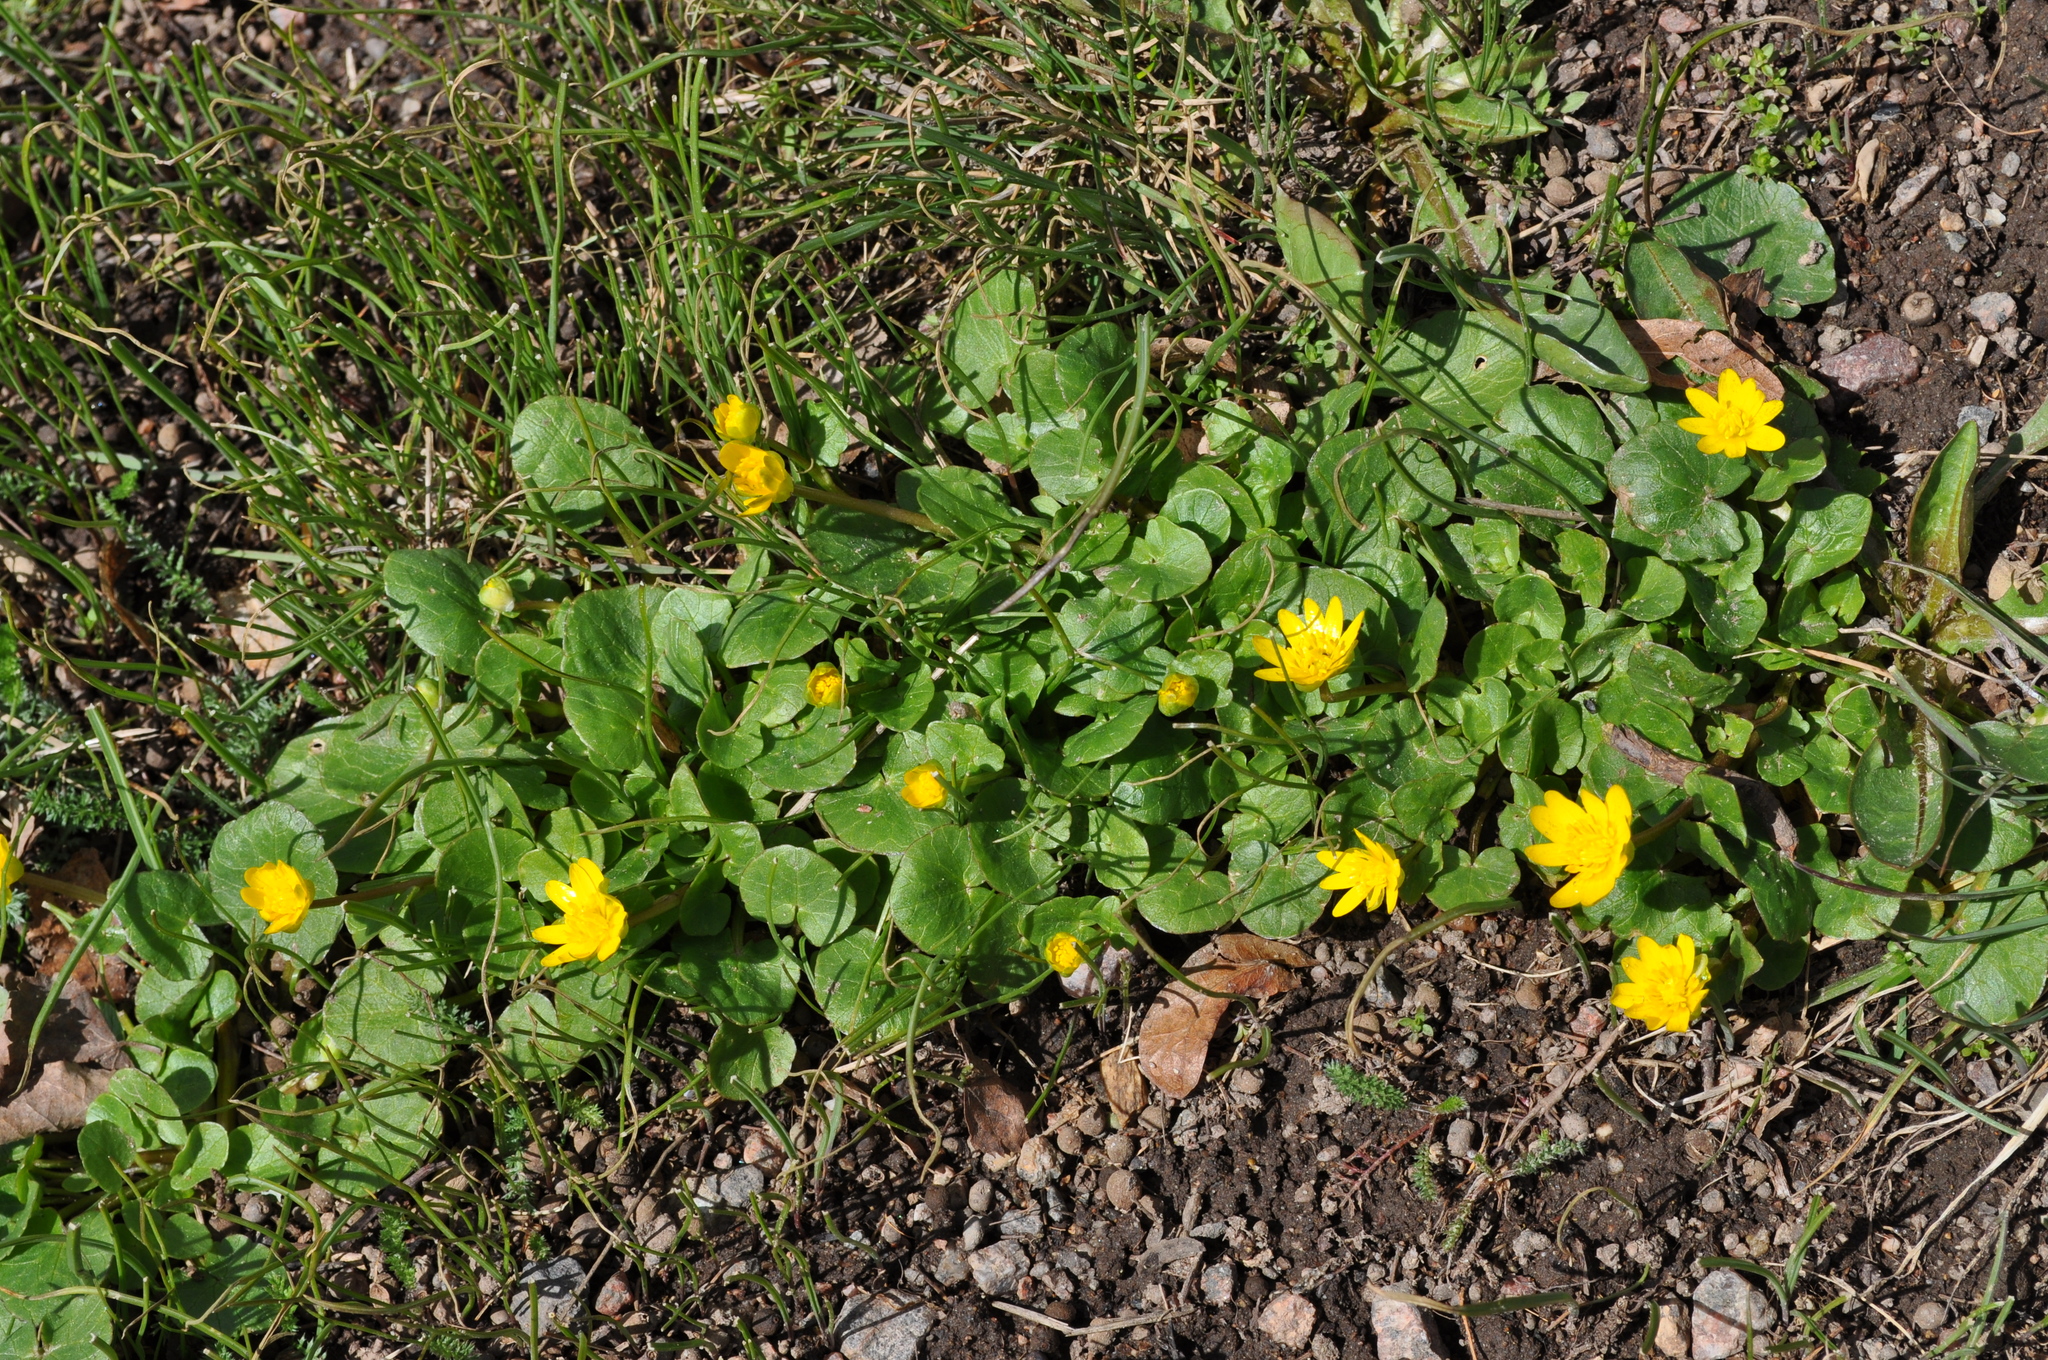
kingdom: Plantae
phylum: Tracheophyta
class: Magnoliopsida
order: Ranunculales
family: Ranunculaceae
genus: Ficaria
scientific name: Ficaria verna
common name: Lesser celandine
